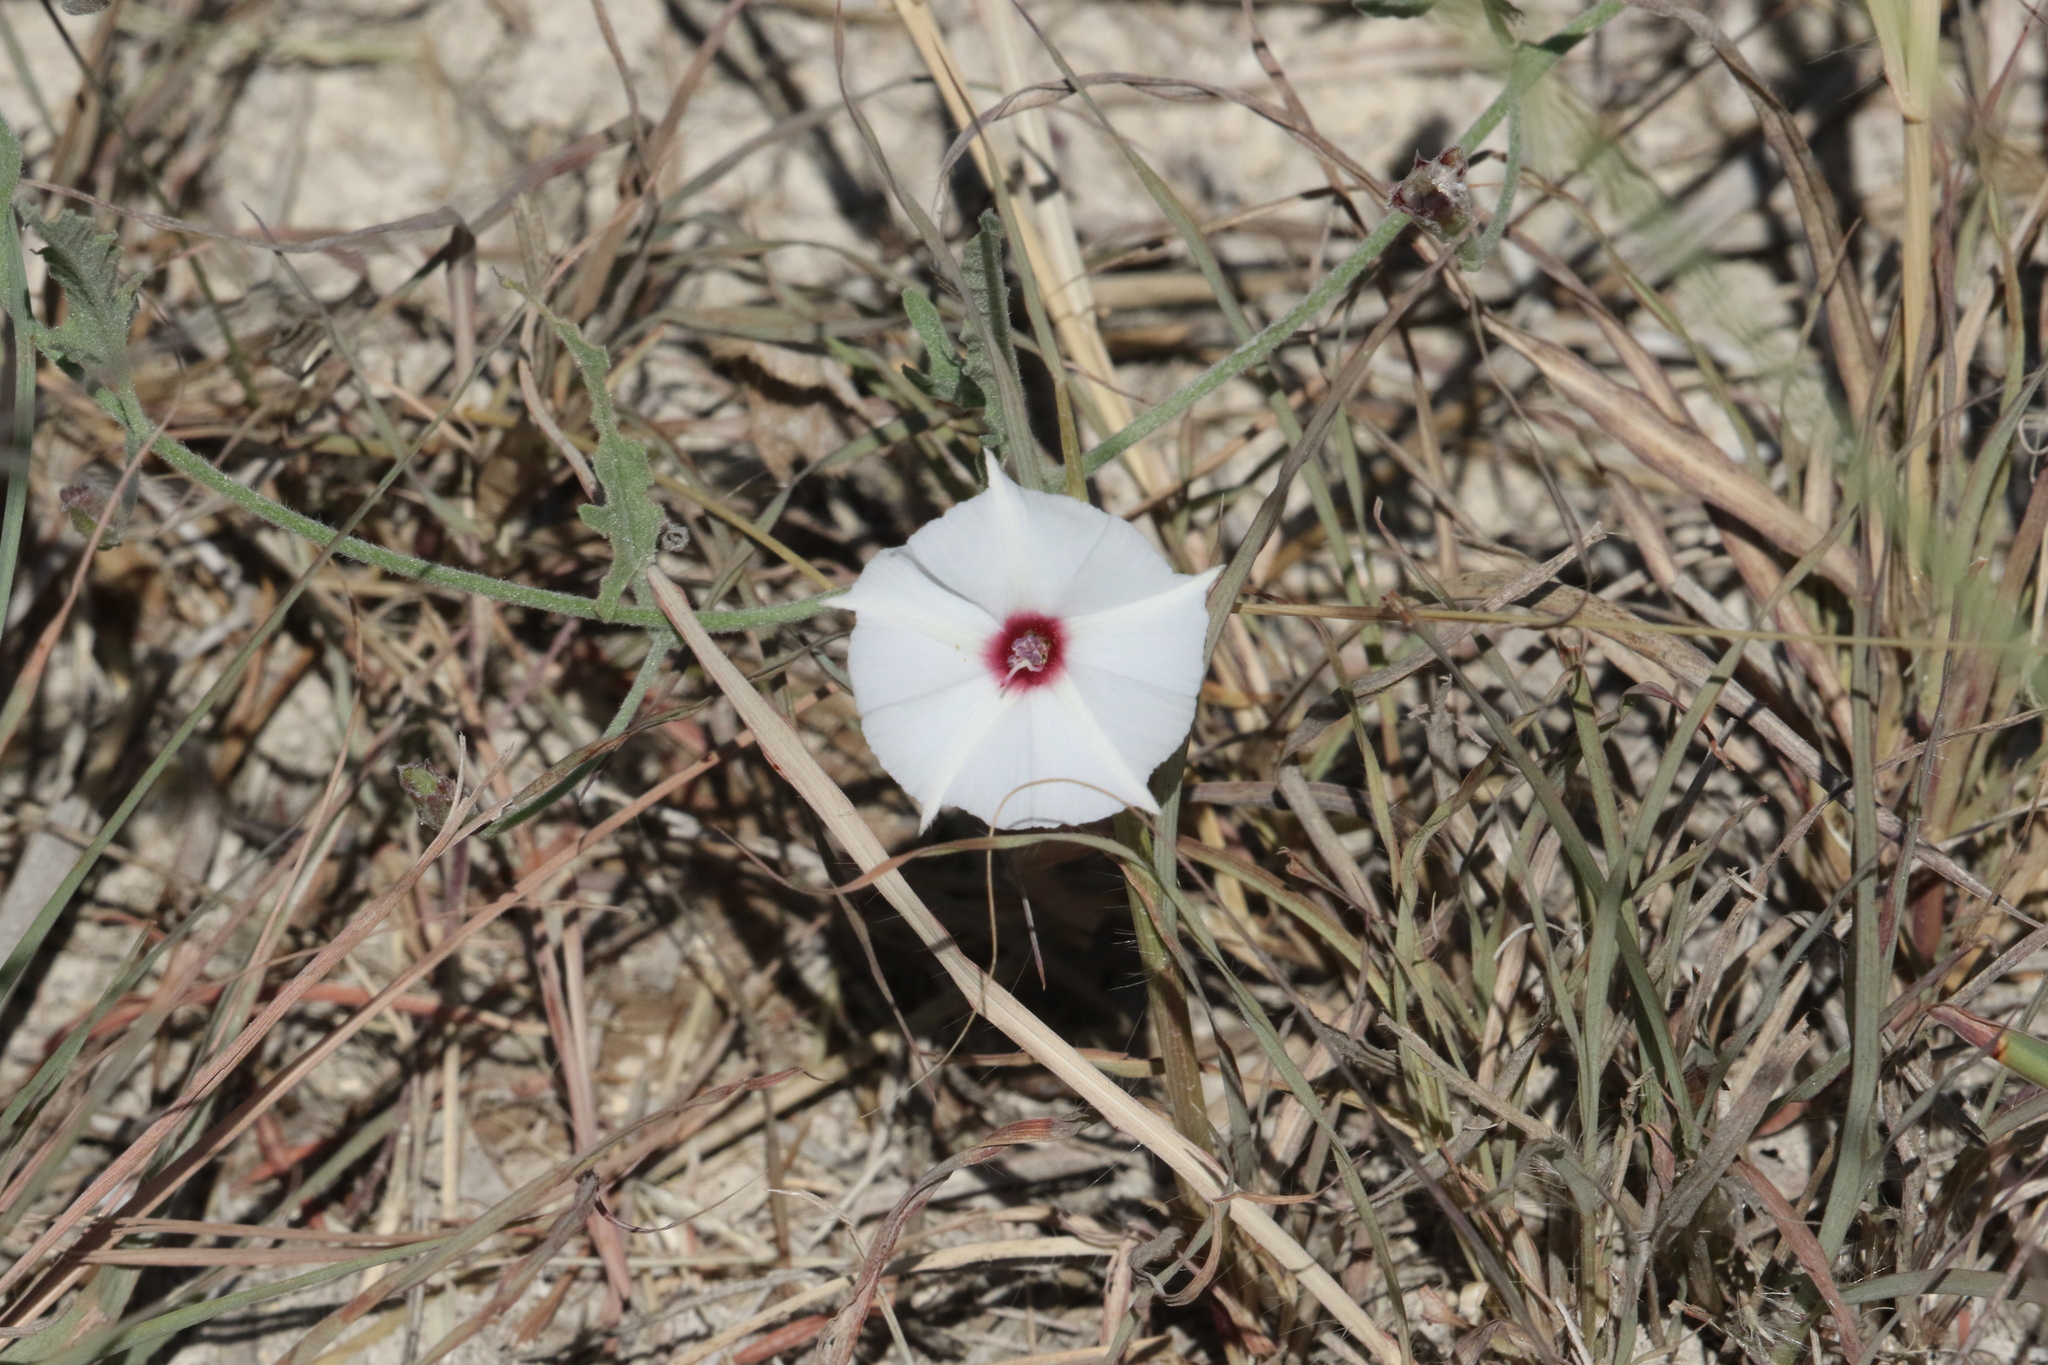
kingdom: Plantae
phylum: Tracheophyta
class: Magnoliopsida
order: Solanales
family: Convolvulaceae
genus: Convolvulus
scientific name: Convolvulus equitans
